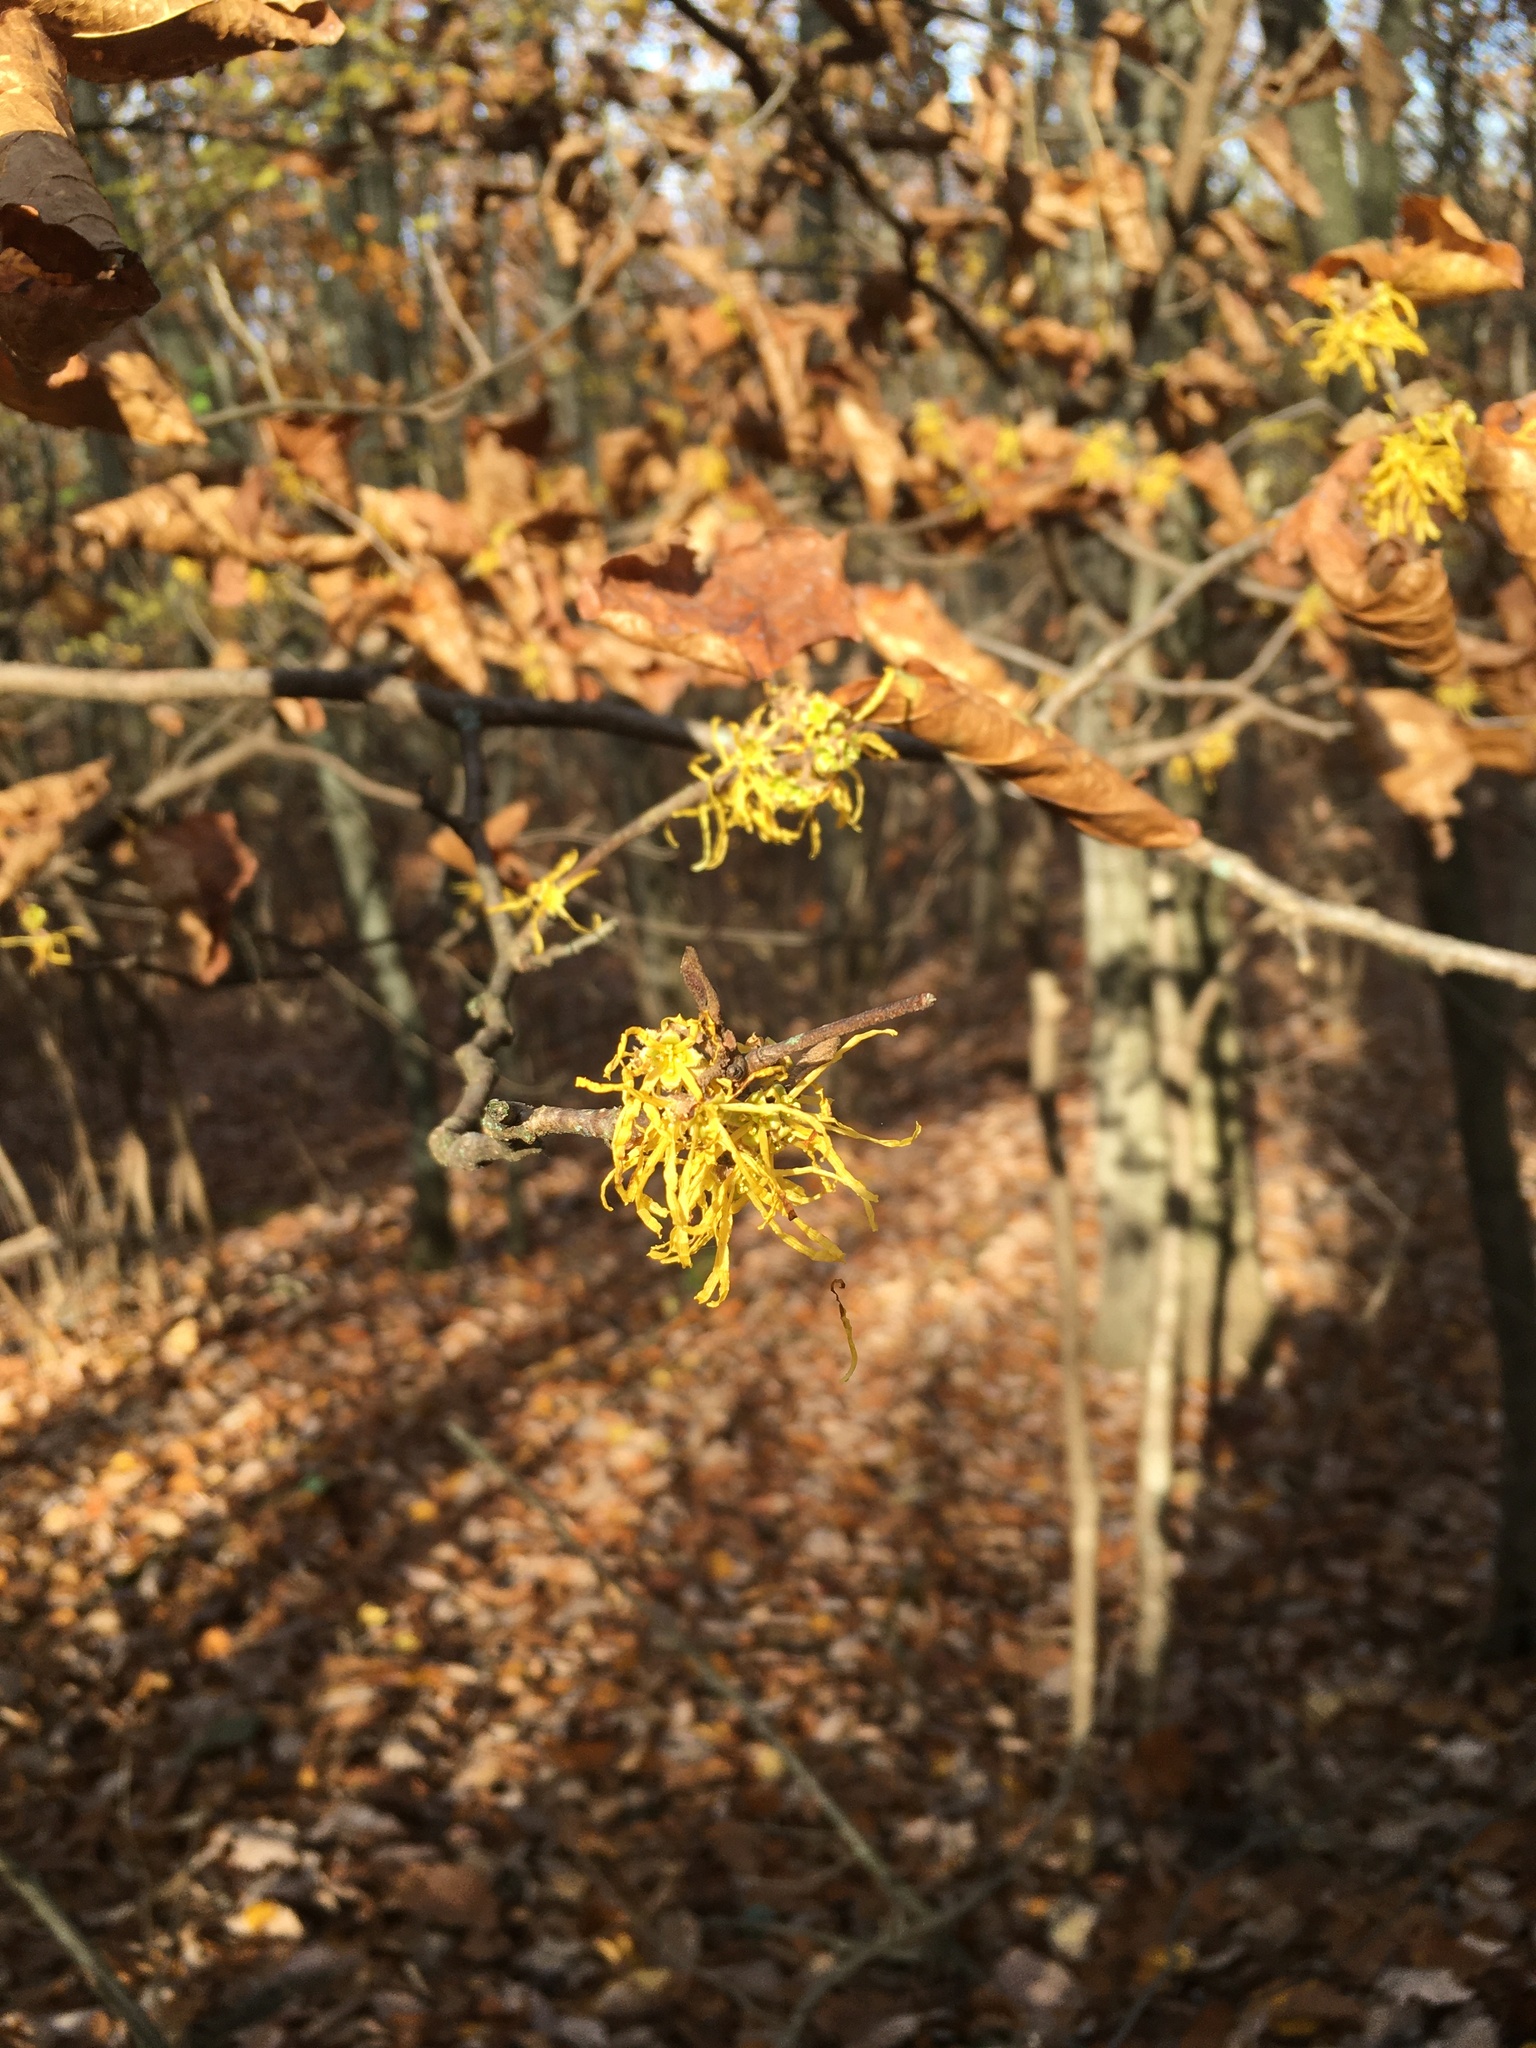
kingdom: Plantae
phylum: Tracheophyta
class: Magnoliopsida
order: Saxifragales
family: Hamamelidaceae
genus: Hamamelis
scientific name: Hamamelis virginiana
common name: Witch-hazel
